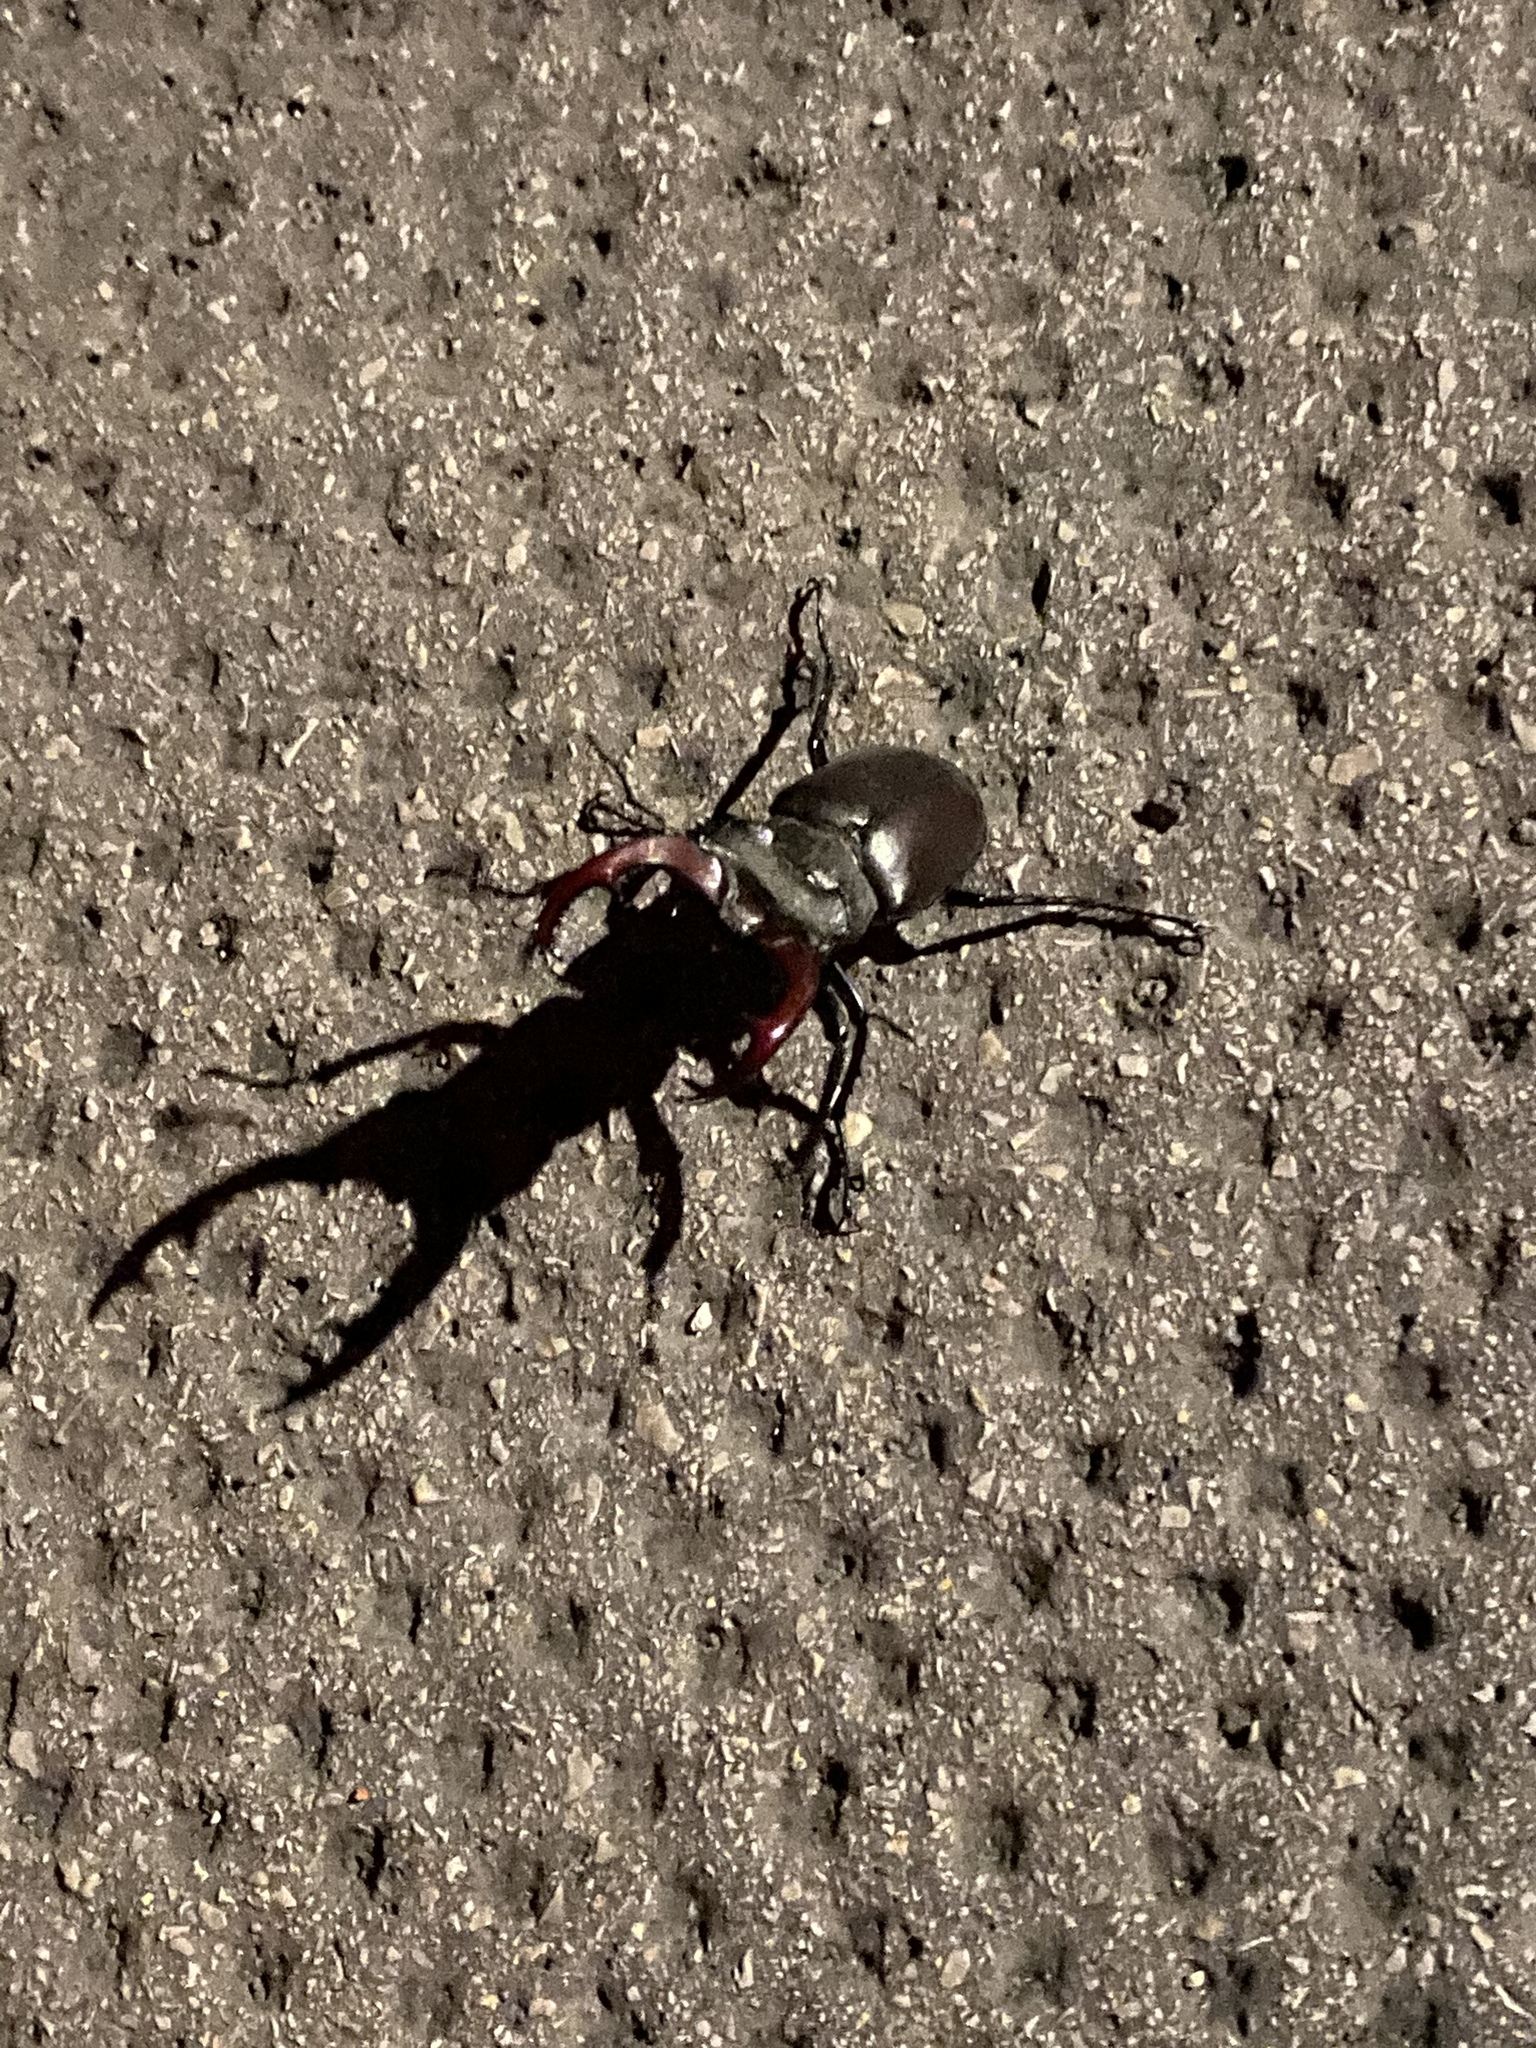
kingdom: Animalia
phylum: Arthropoda
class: Insecta
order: Coleoptera
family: Lucanidae
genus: Lucanus
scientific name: Lucanus cervus
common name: Stag beetle
